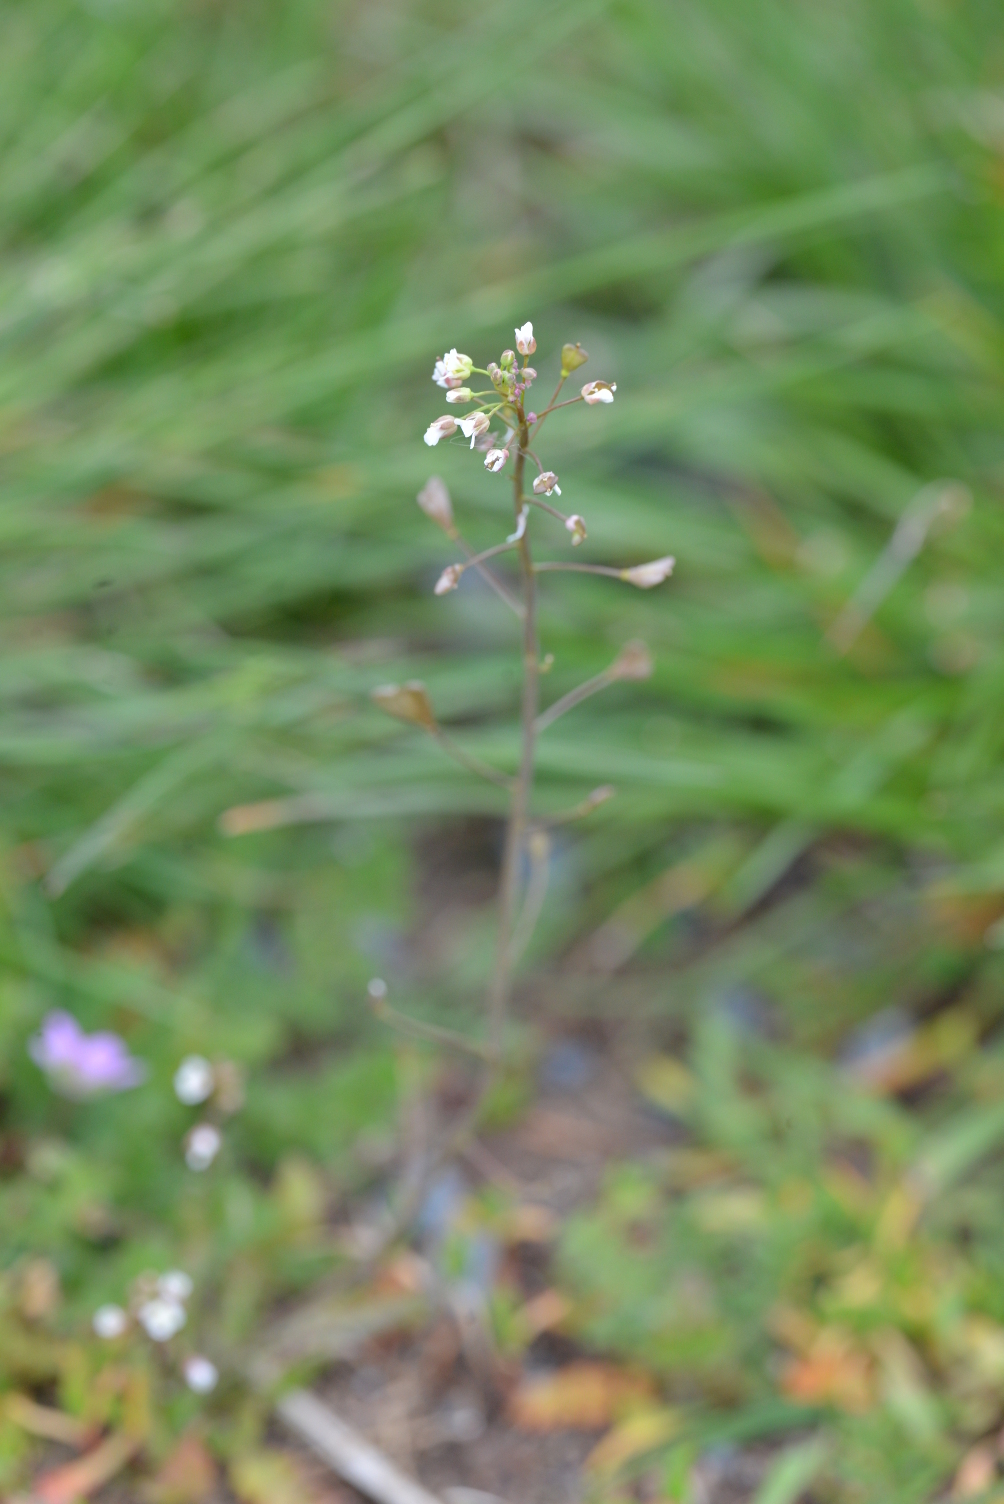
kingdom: Plantae
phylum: Tracheophyta
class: Magnoliopsida
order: Brassicales
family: Brassicaceae
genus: Capsella
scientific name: Capsella bursa-pastoris
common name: Shepherd's purse
